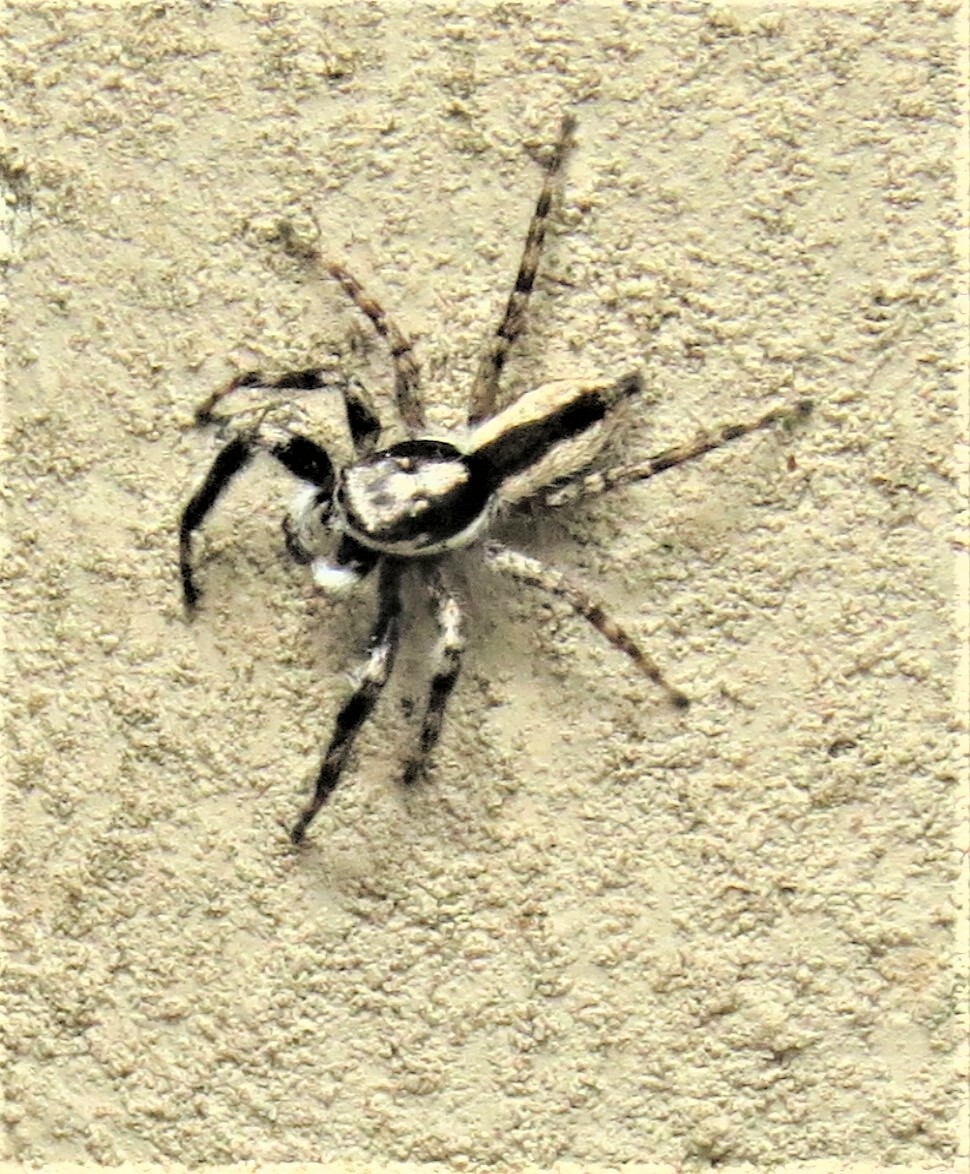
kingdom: Animalia
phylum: Arthropoda
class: Arachnida
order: Araneae
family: Salticidae
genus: Menemerus
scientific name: Menemerus bivittatus
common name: Gray wall jumper
